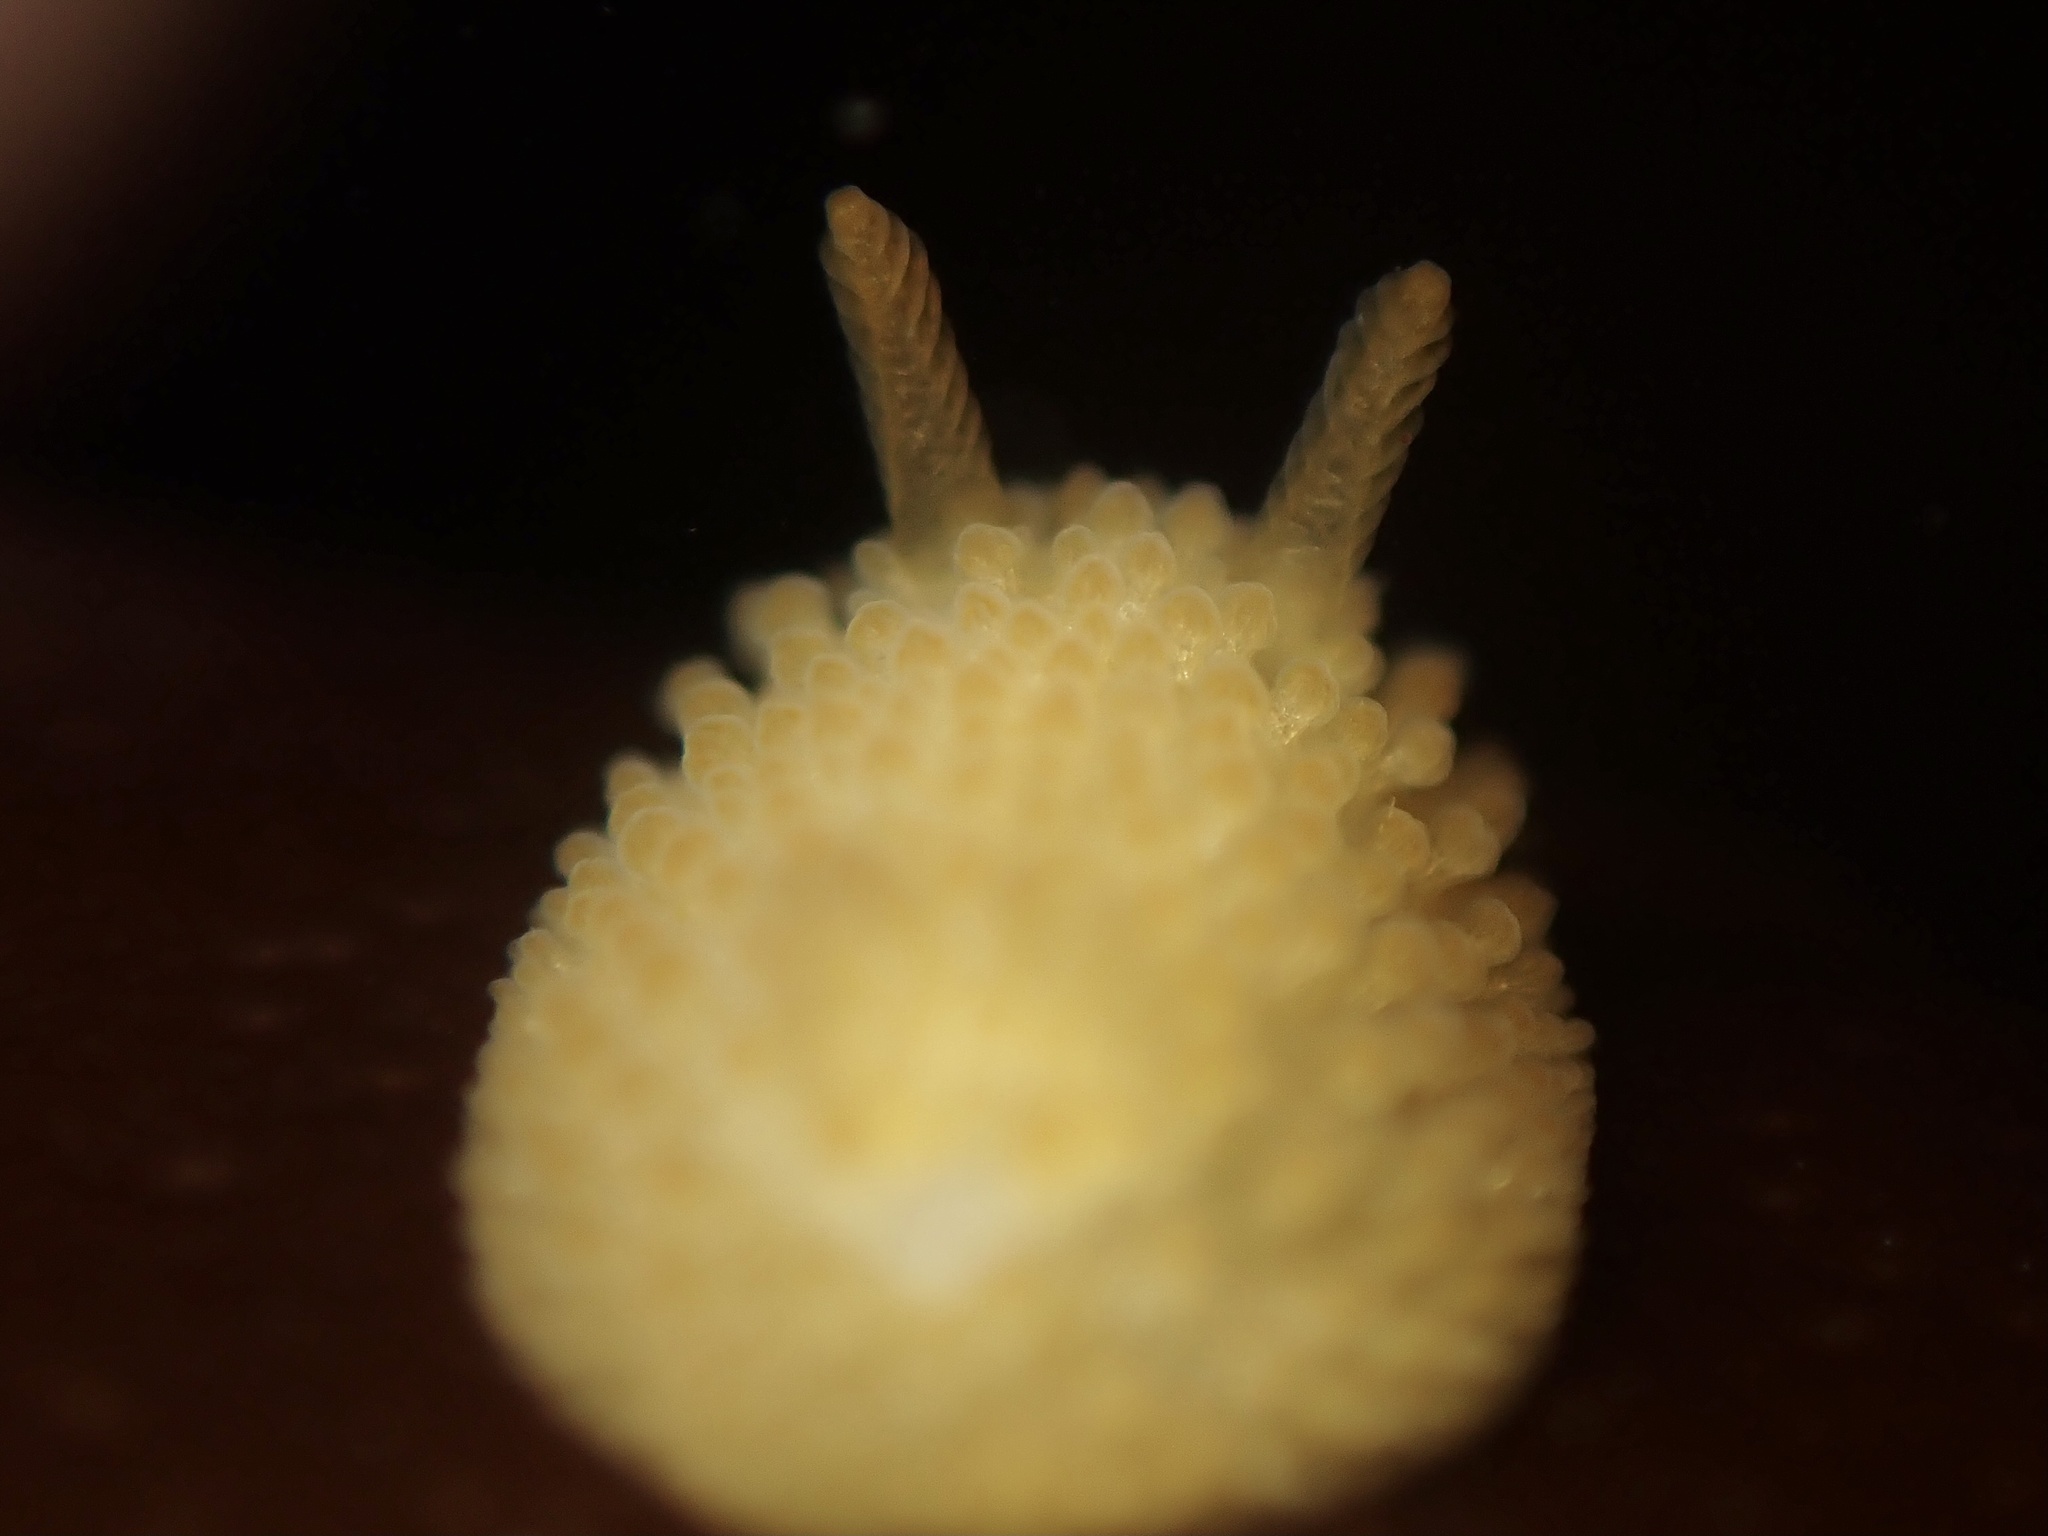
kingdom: Animalia
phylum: Mollusca
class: Gastropoda
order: Nudibranchia
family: Onchidorididae
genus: Atalodoris
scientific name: Atalodoris jannae
